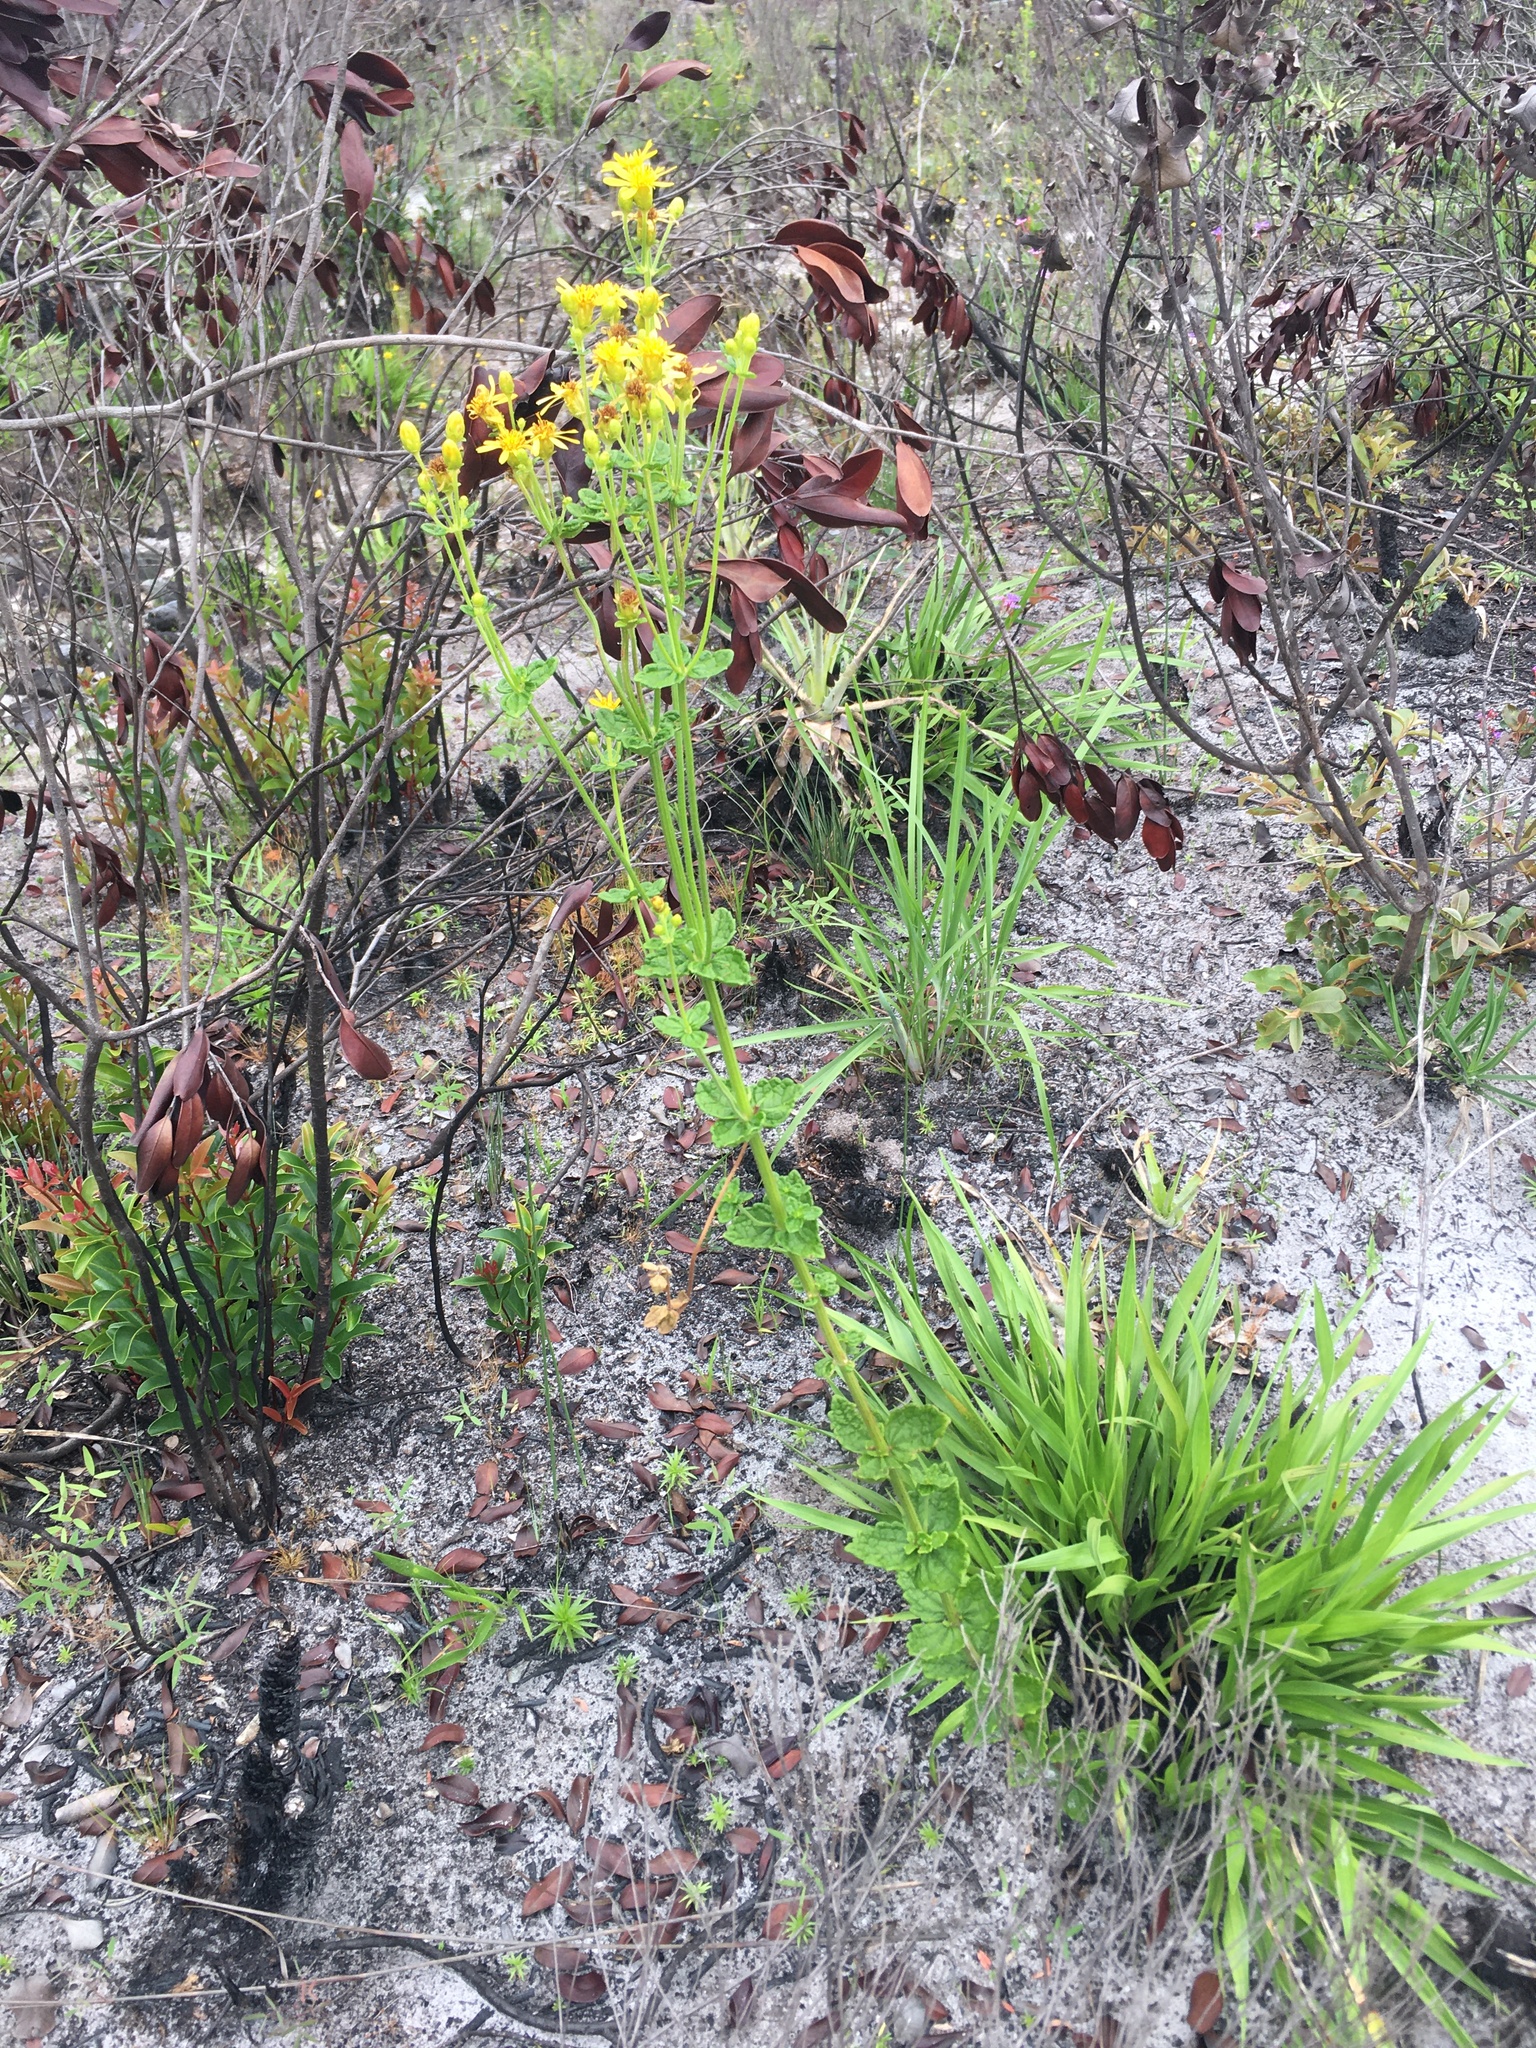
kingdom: Plantae
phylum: Tracheophyta
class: Magnoliopsida
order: Asterales
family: Asteraceae
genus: Calea
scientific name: Calea semirii
